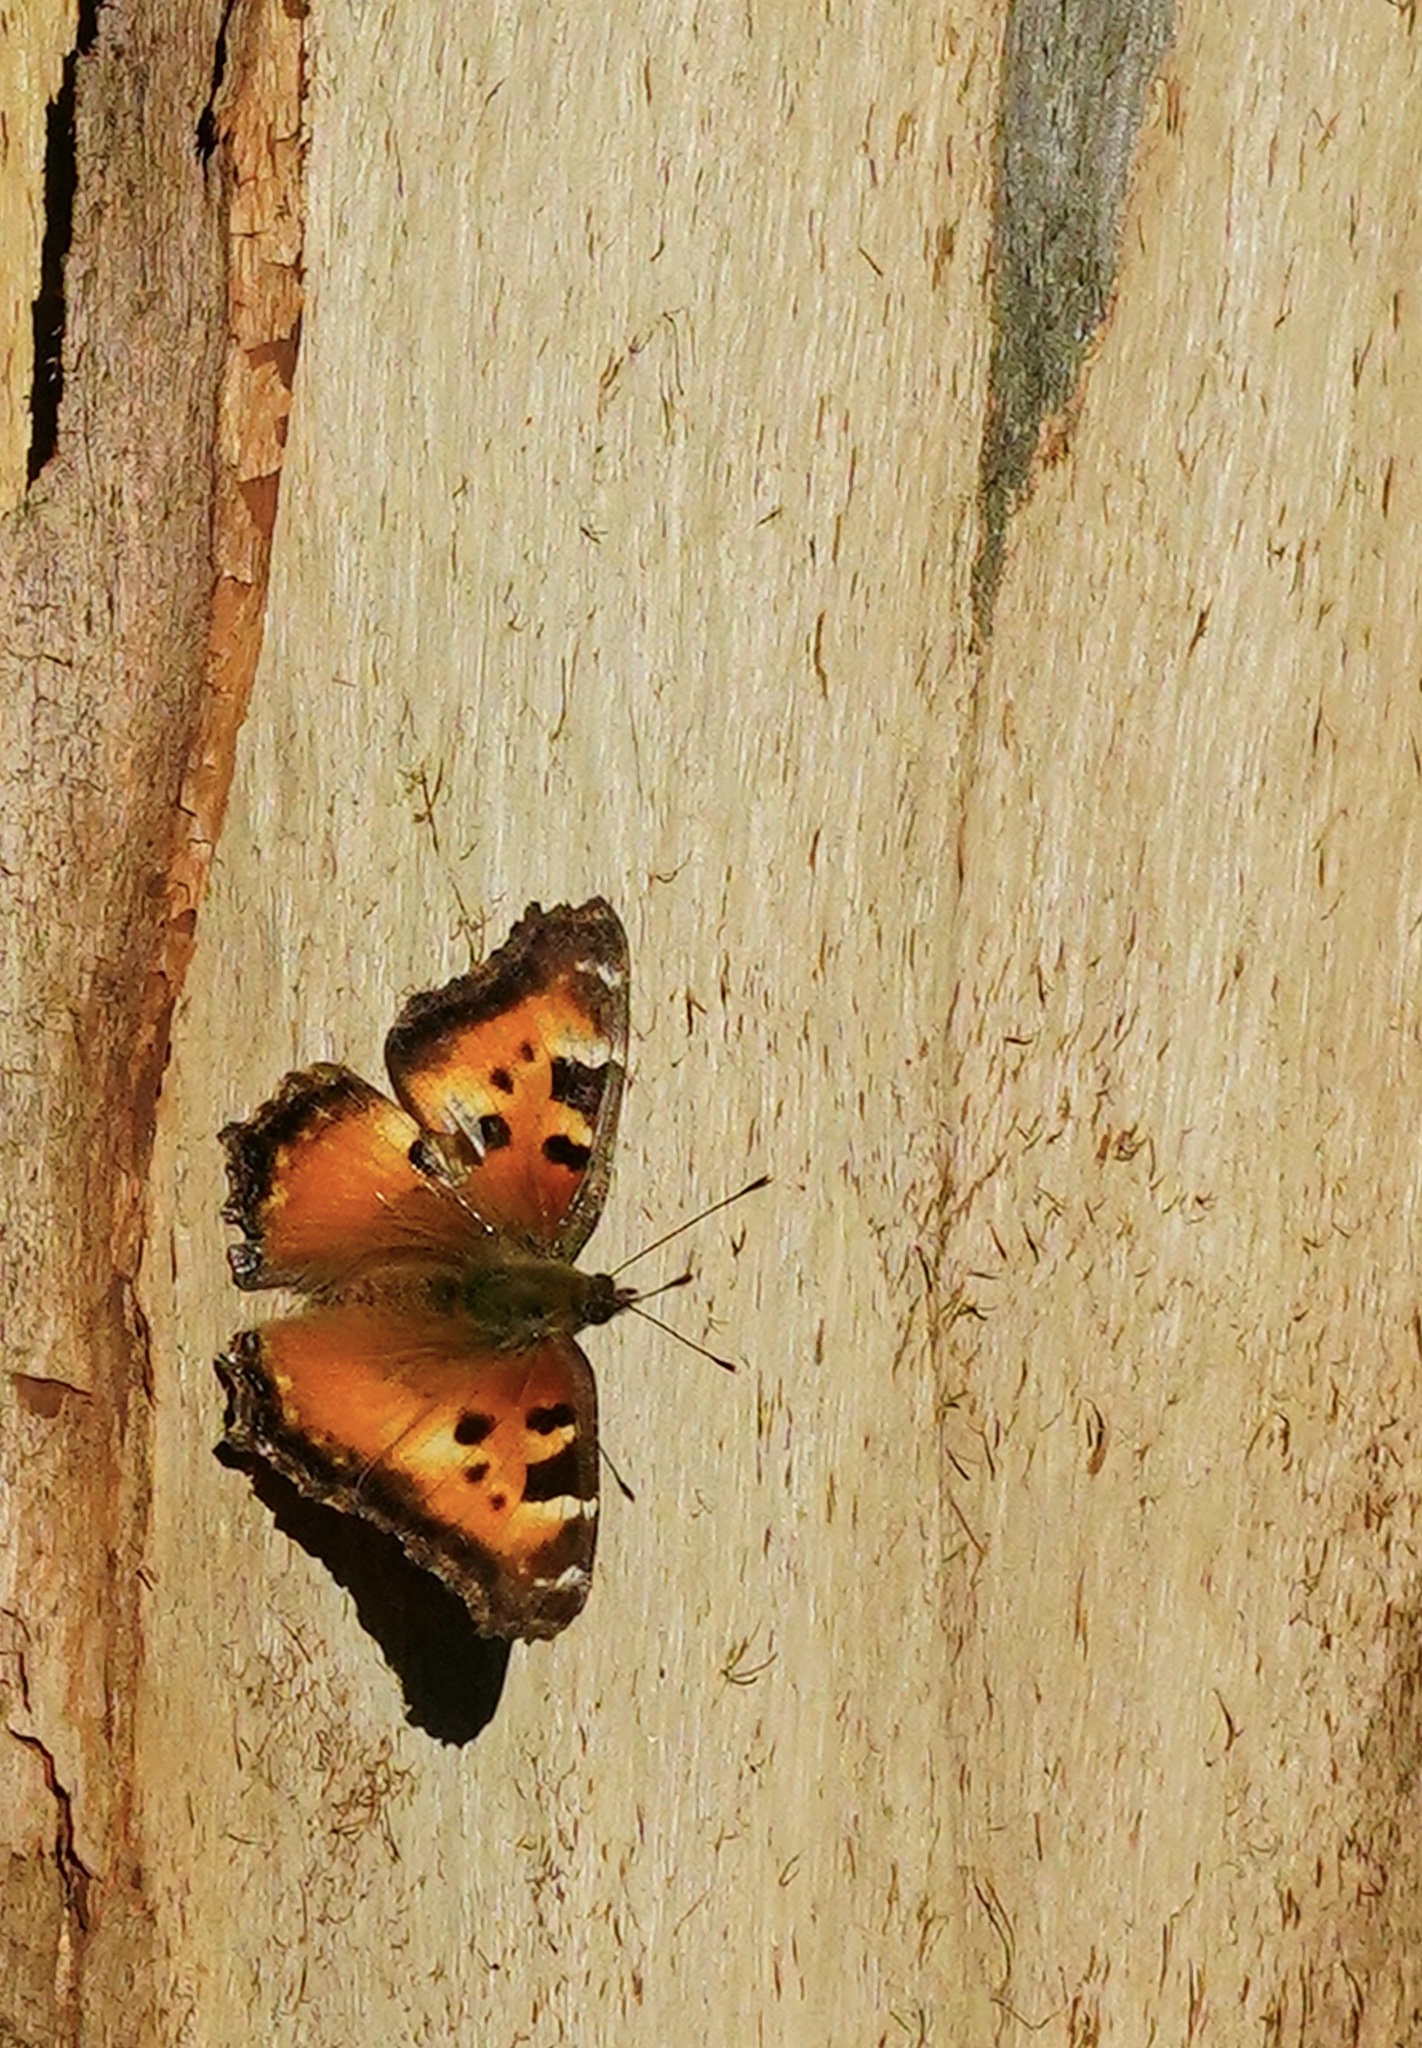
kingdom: Animalia
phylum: Arthropoda
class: Insecta
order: Lepidoptera
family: Nymphalidae
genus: Nymphalis
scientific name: Nymphalis californica
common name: California tortoiseshell
